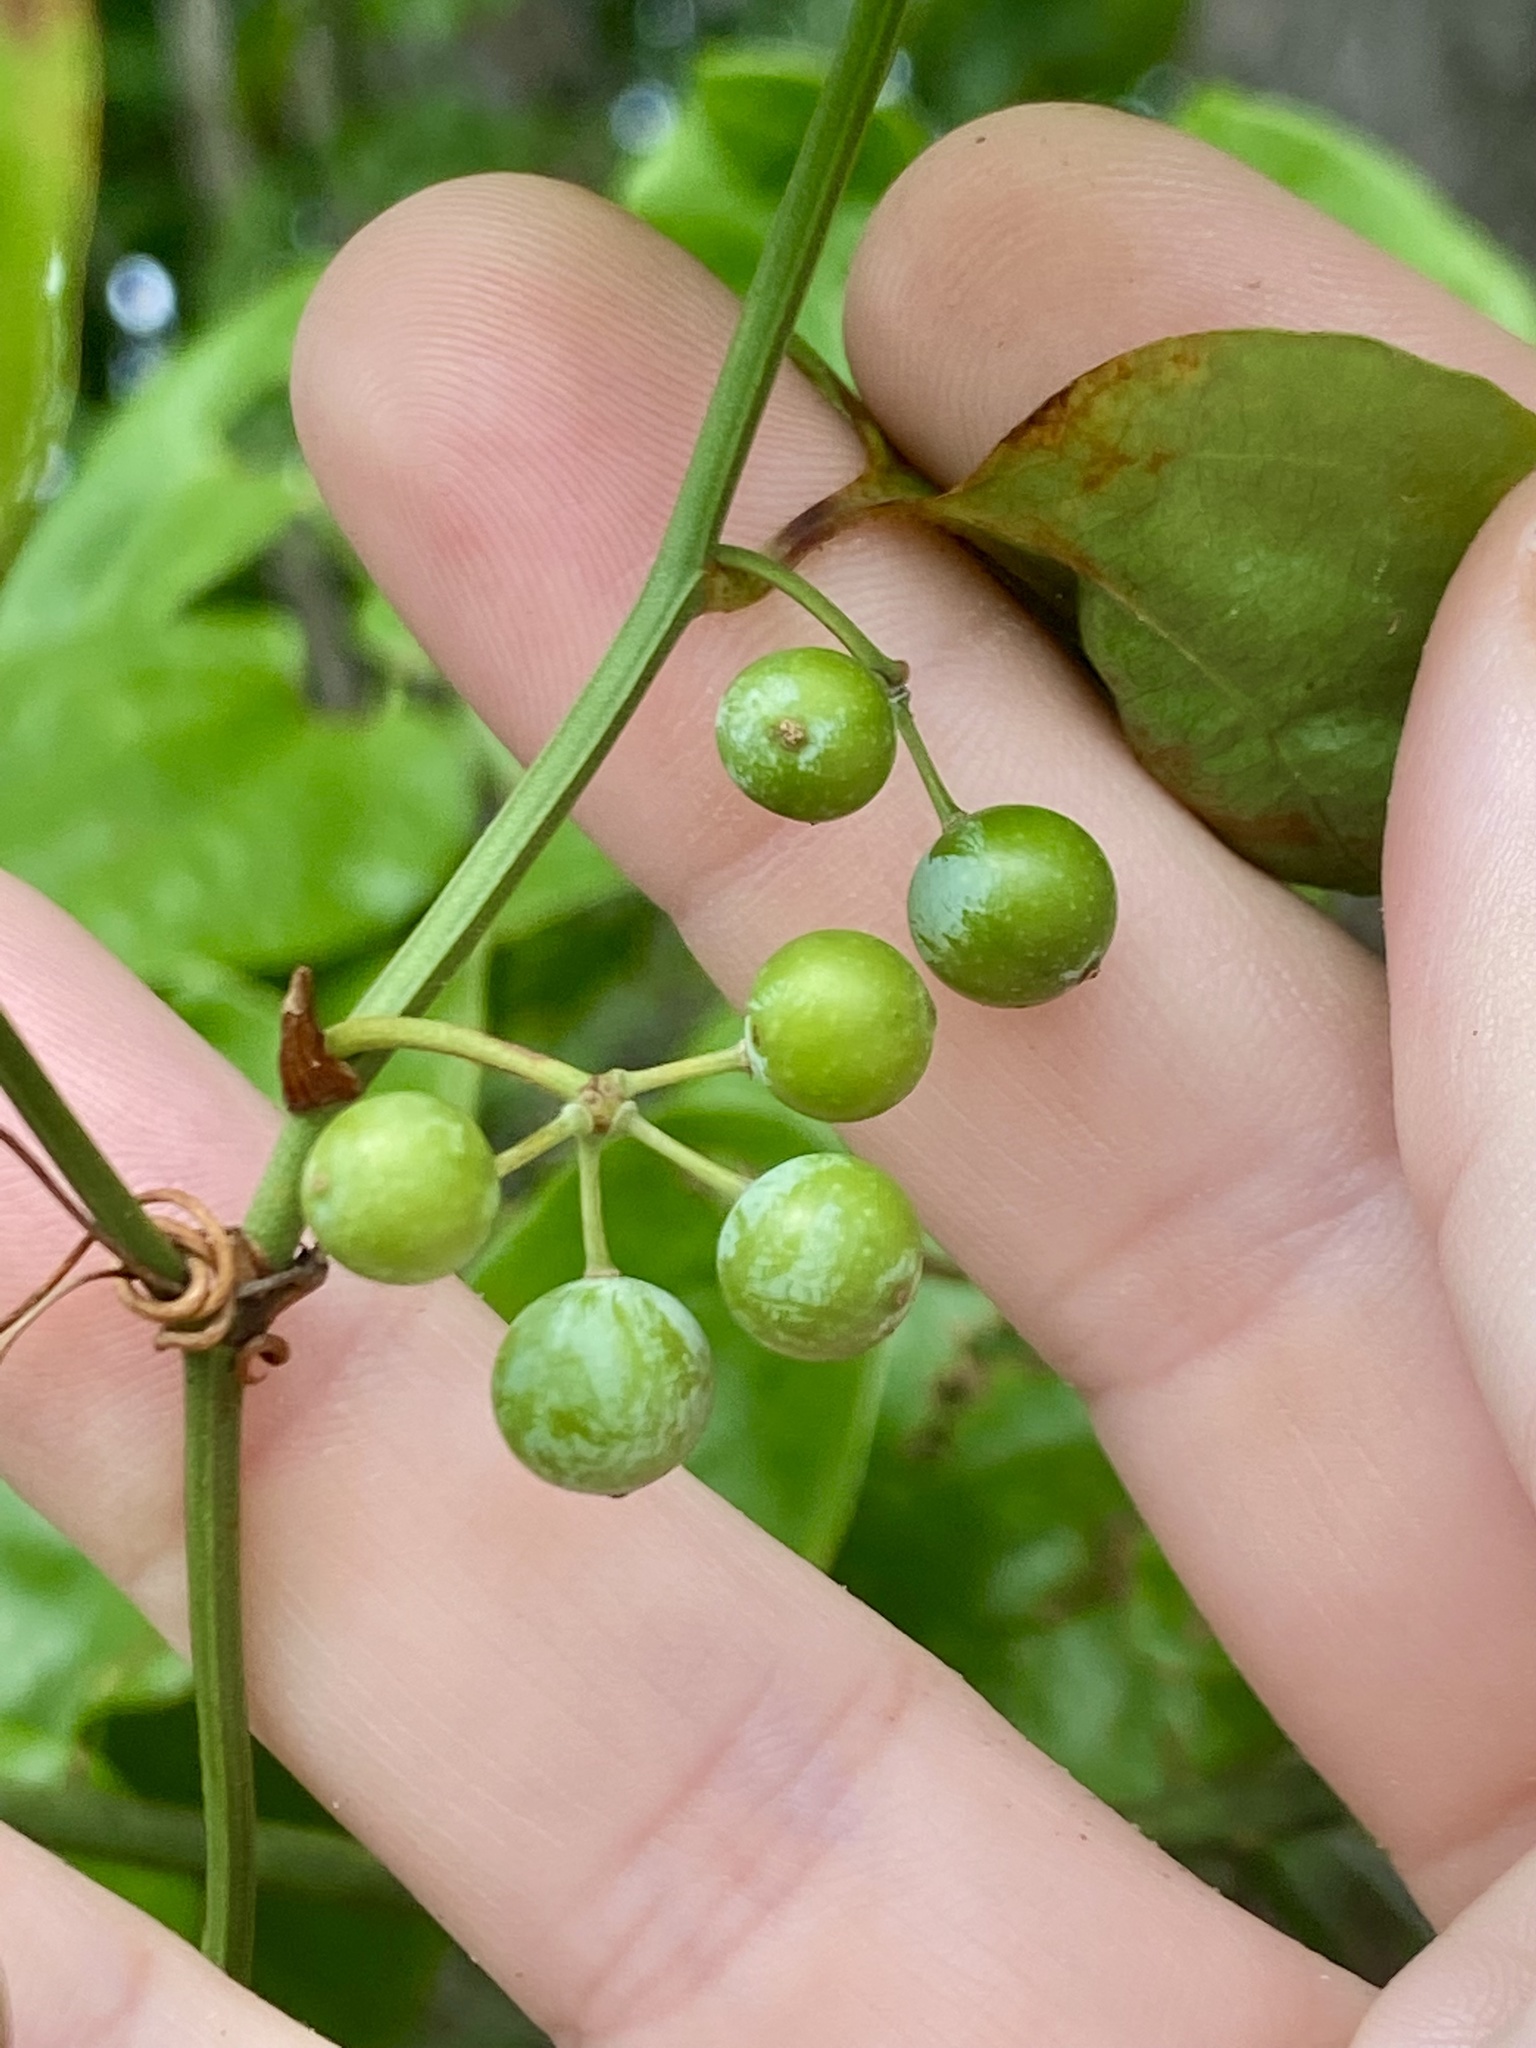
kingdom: Plantae
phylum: Tracheophyta
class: Liliopsida
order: Liliales
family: Smilacaceae
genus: Smilax
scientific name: Smilax rotundifolia
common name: Bullbriar
